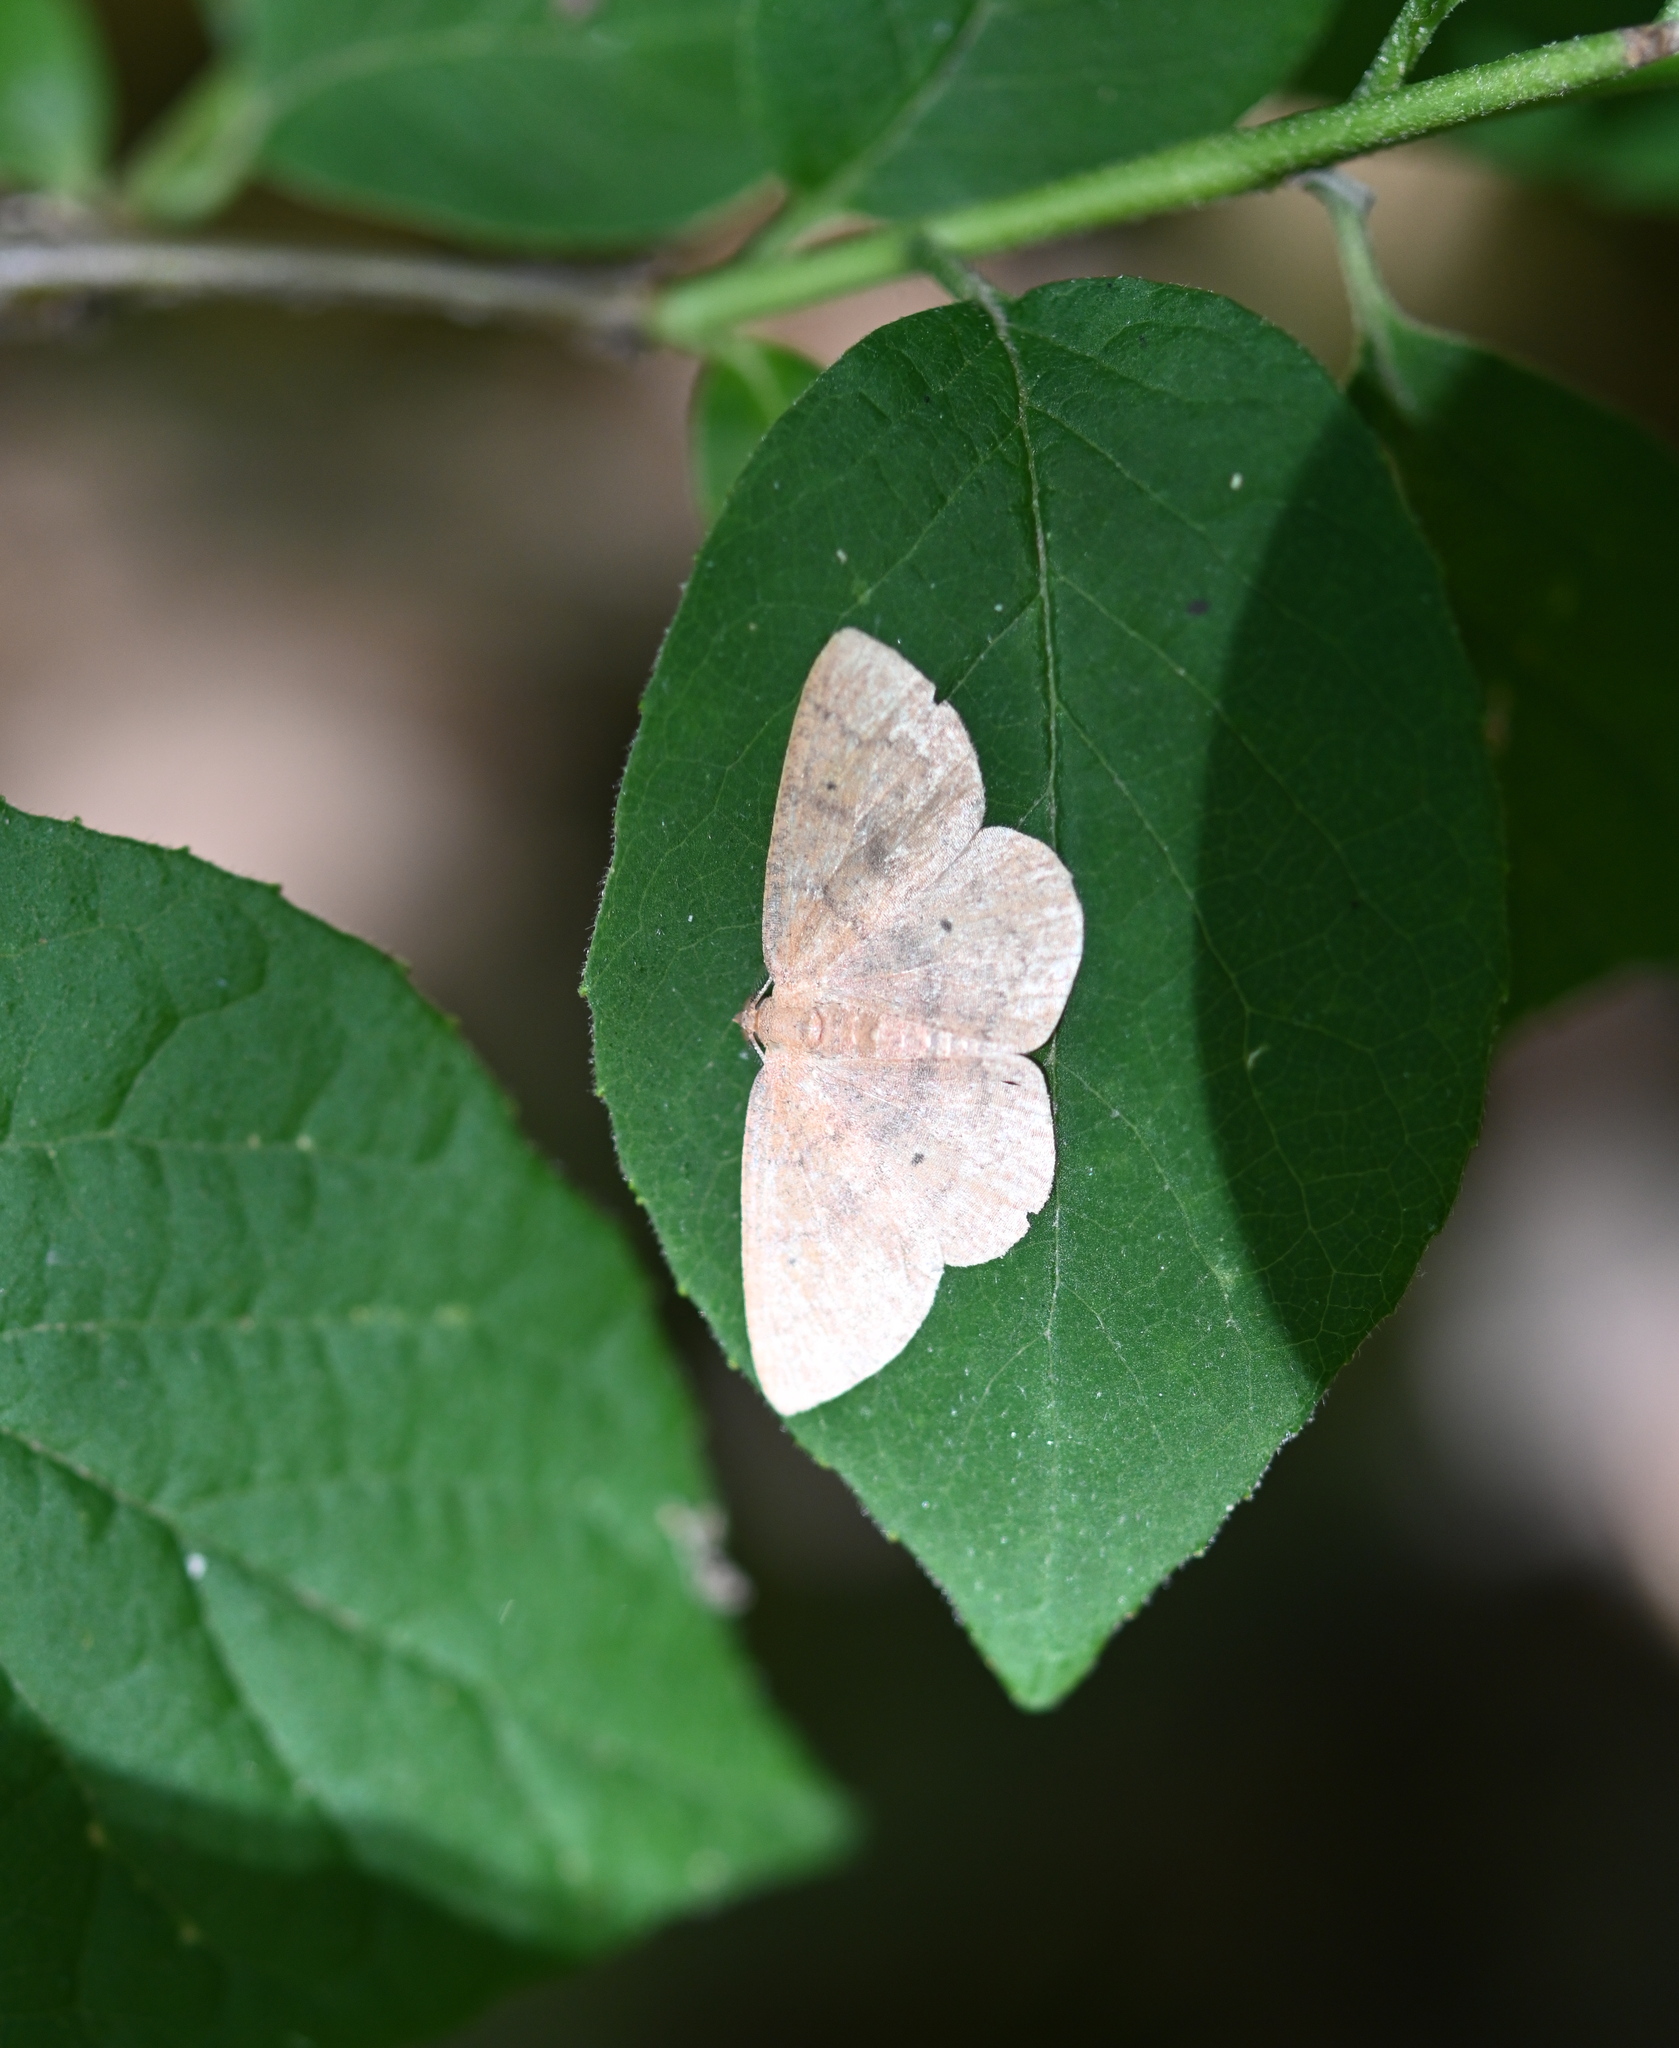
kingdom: Animalia
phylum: Arthropoda
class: Insecta
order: Lepidoptera
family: Geometridae
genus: Ilexia
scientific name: Ilexia intractata
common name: Black-dotted ruddy moth
